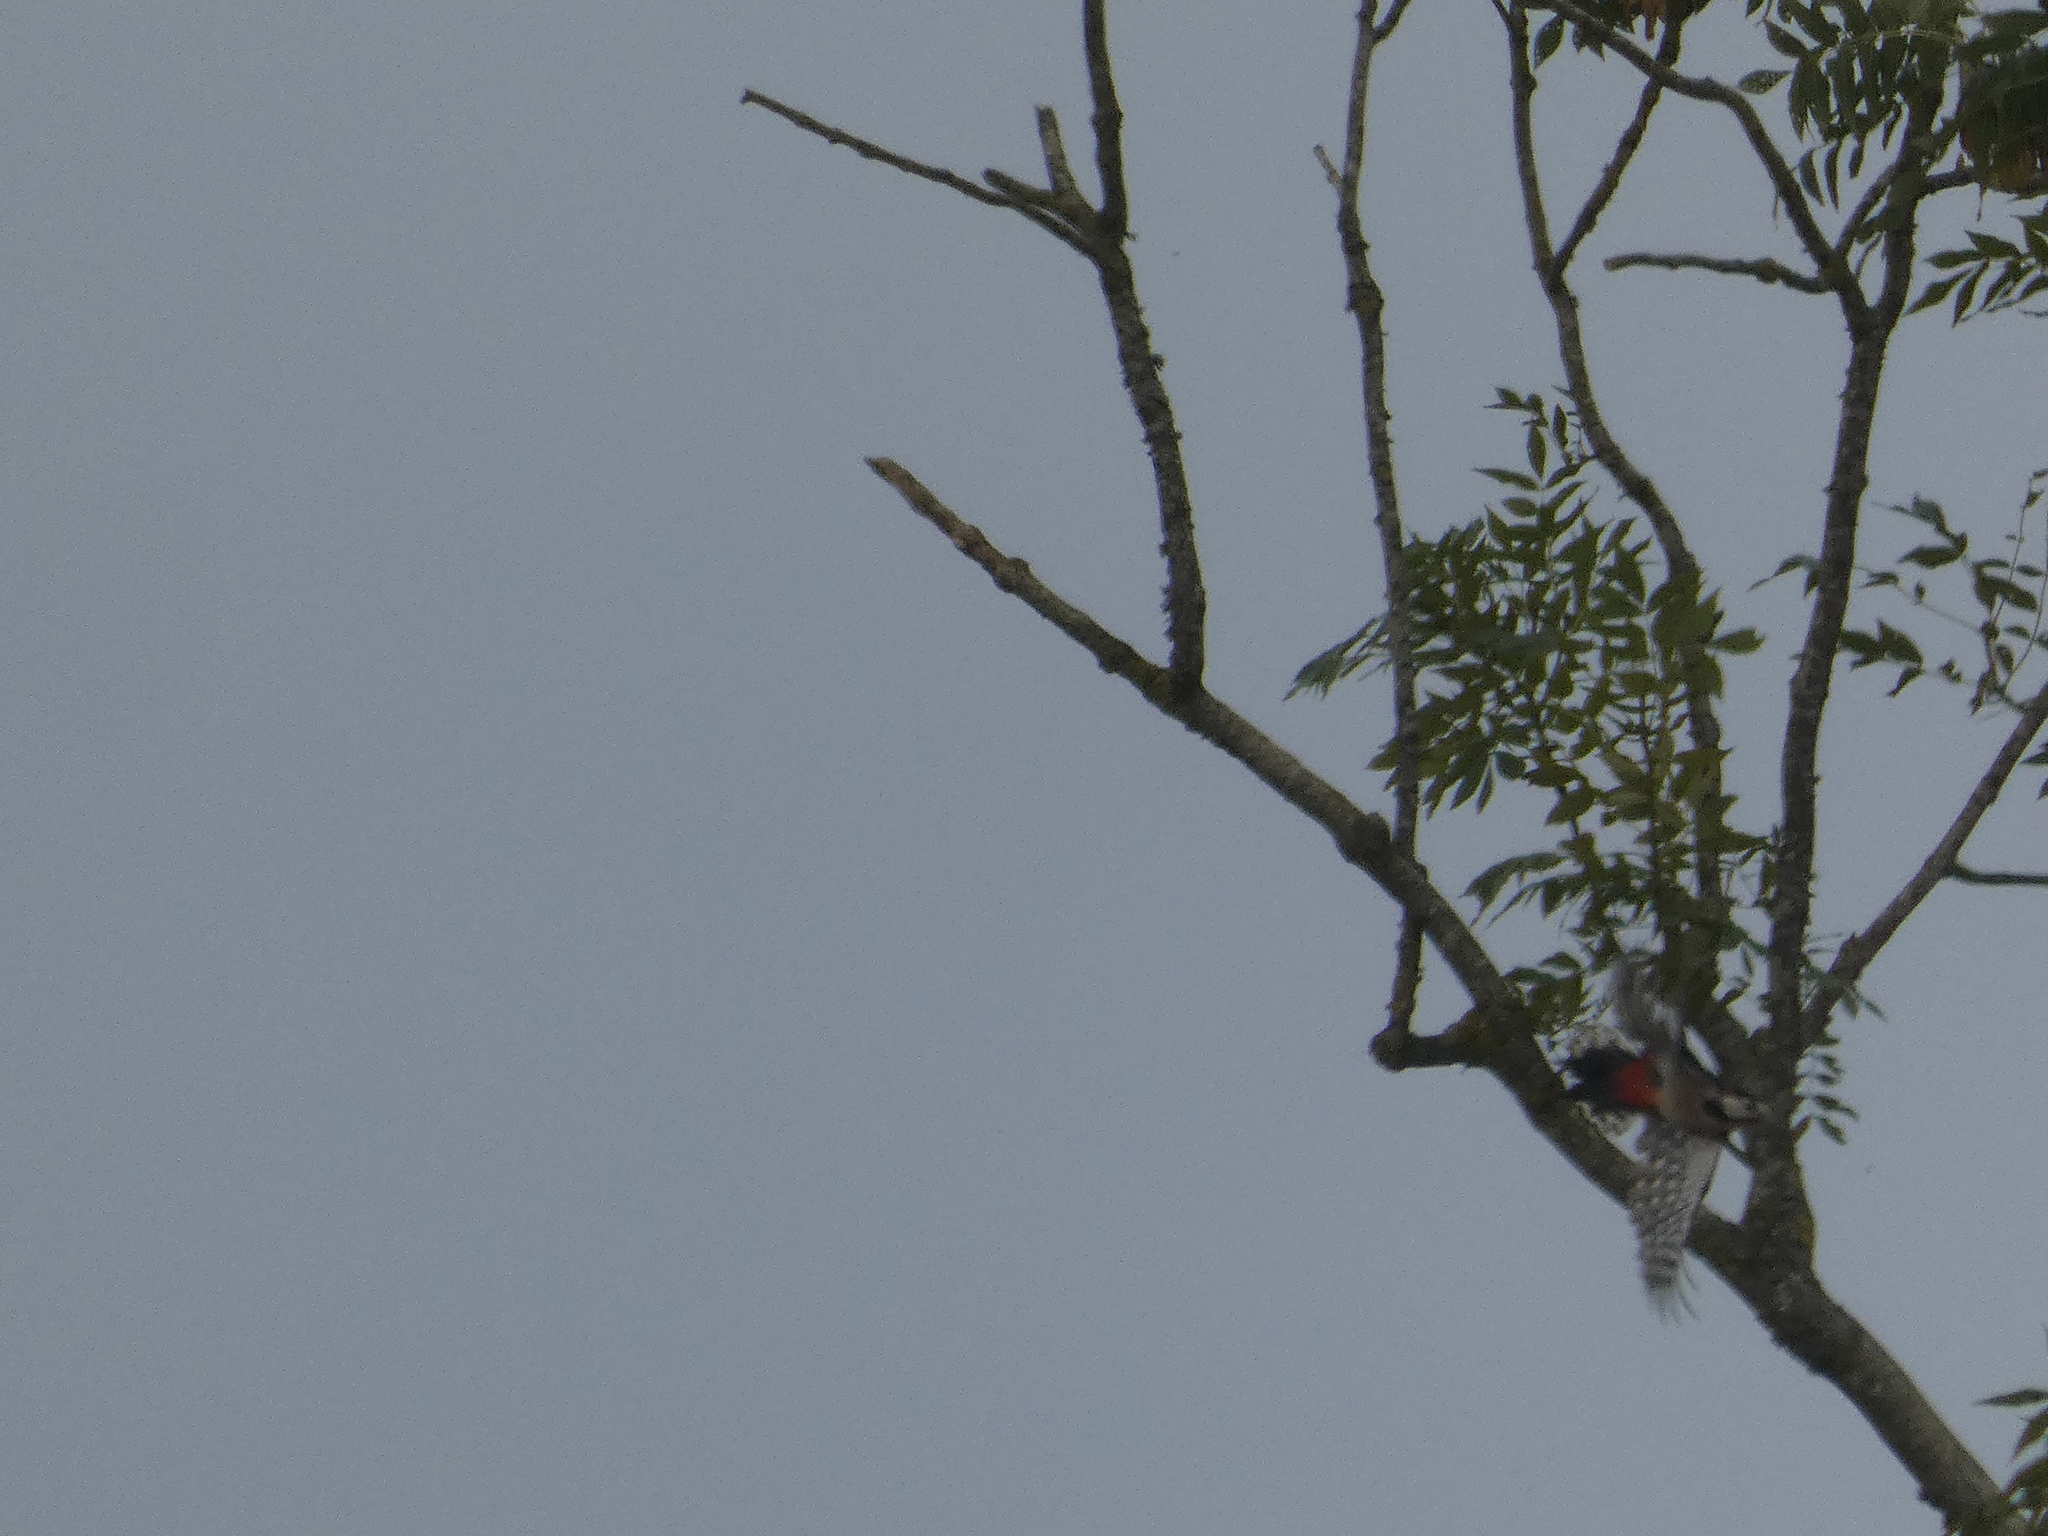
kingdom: Animalia
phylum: Chordata
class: Aves
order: Piciformes
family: Picidae
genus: Dendrocopos
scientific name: Dendrocopos major
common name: Great spotted woodpecker
